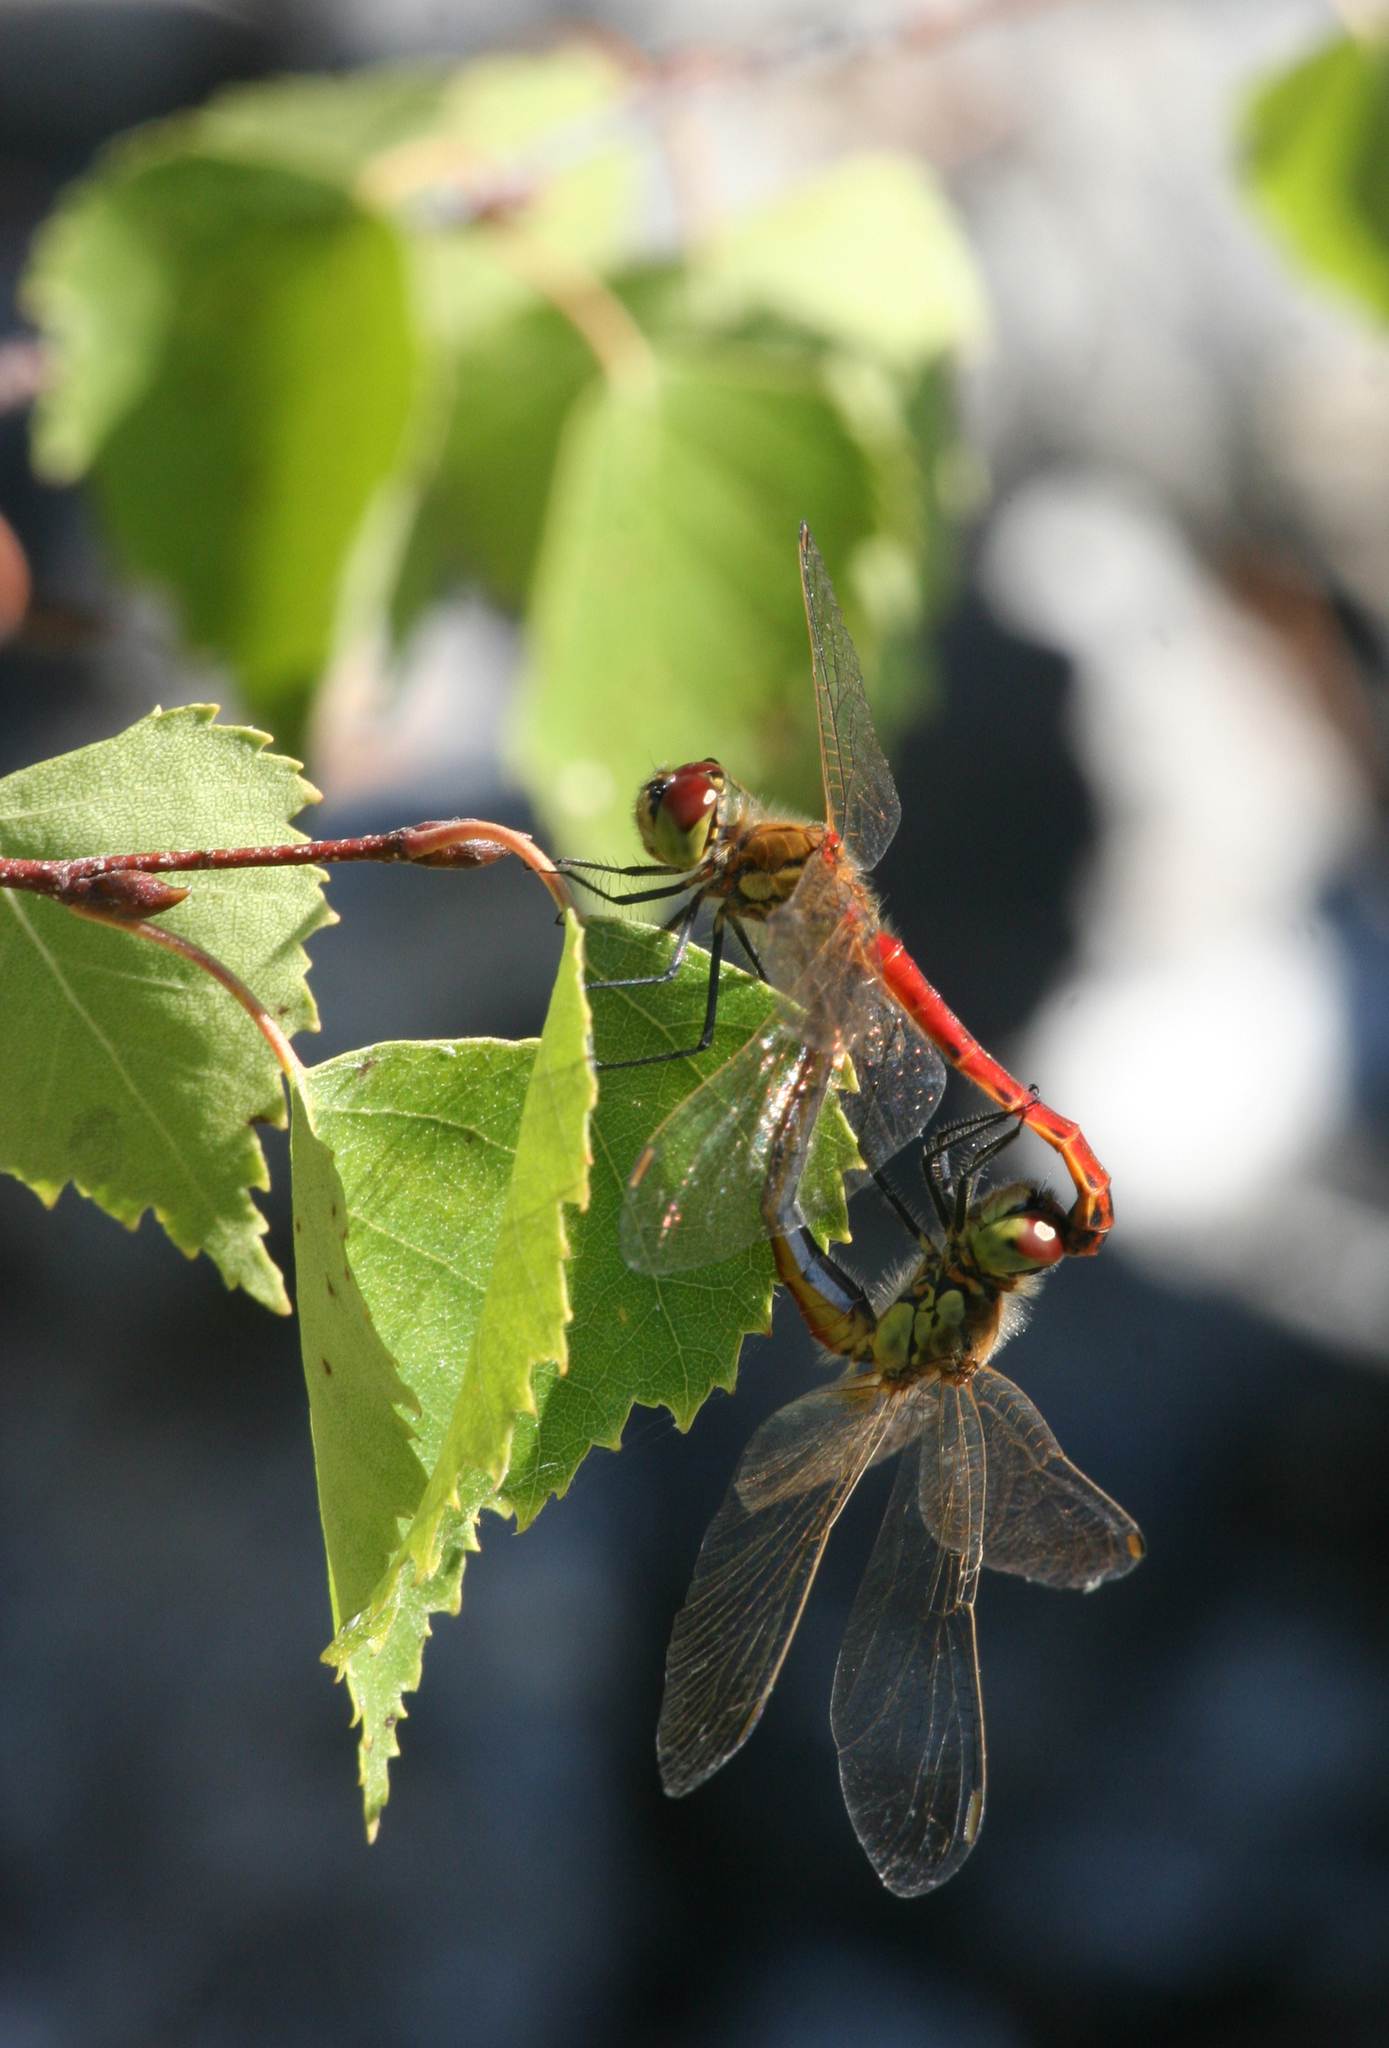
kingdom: Animalia
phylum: Arthropoda
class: Insecta
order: Odonata
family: Libellulidae
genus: Sympetrum
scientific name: Sympetrum depressiusculum
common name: Spotted darter
